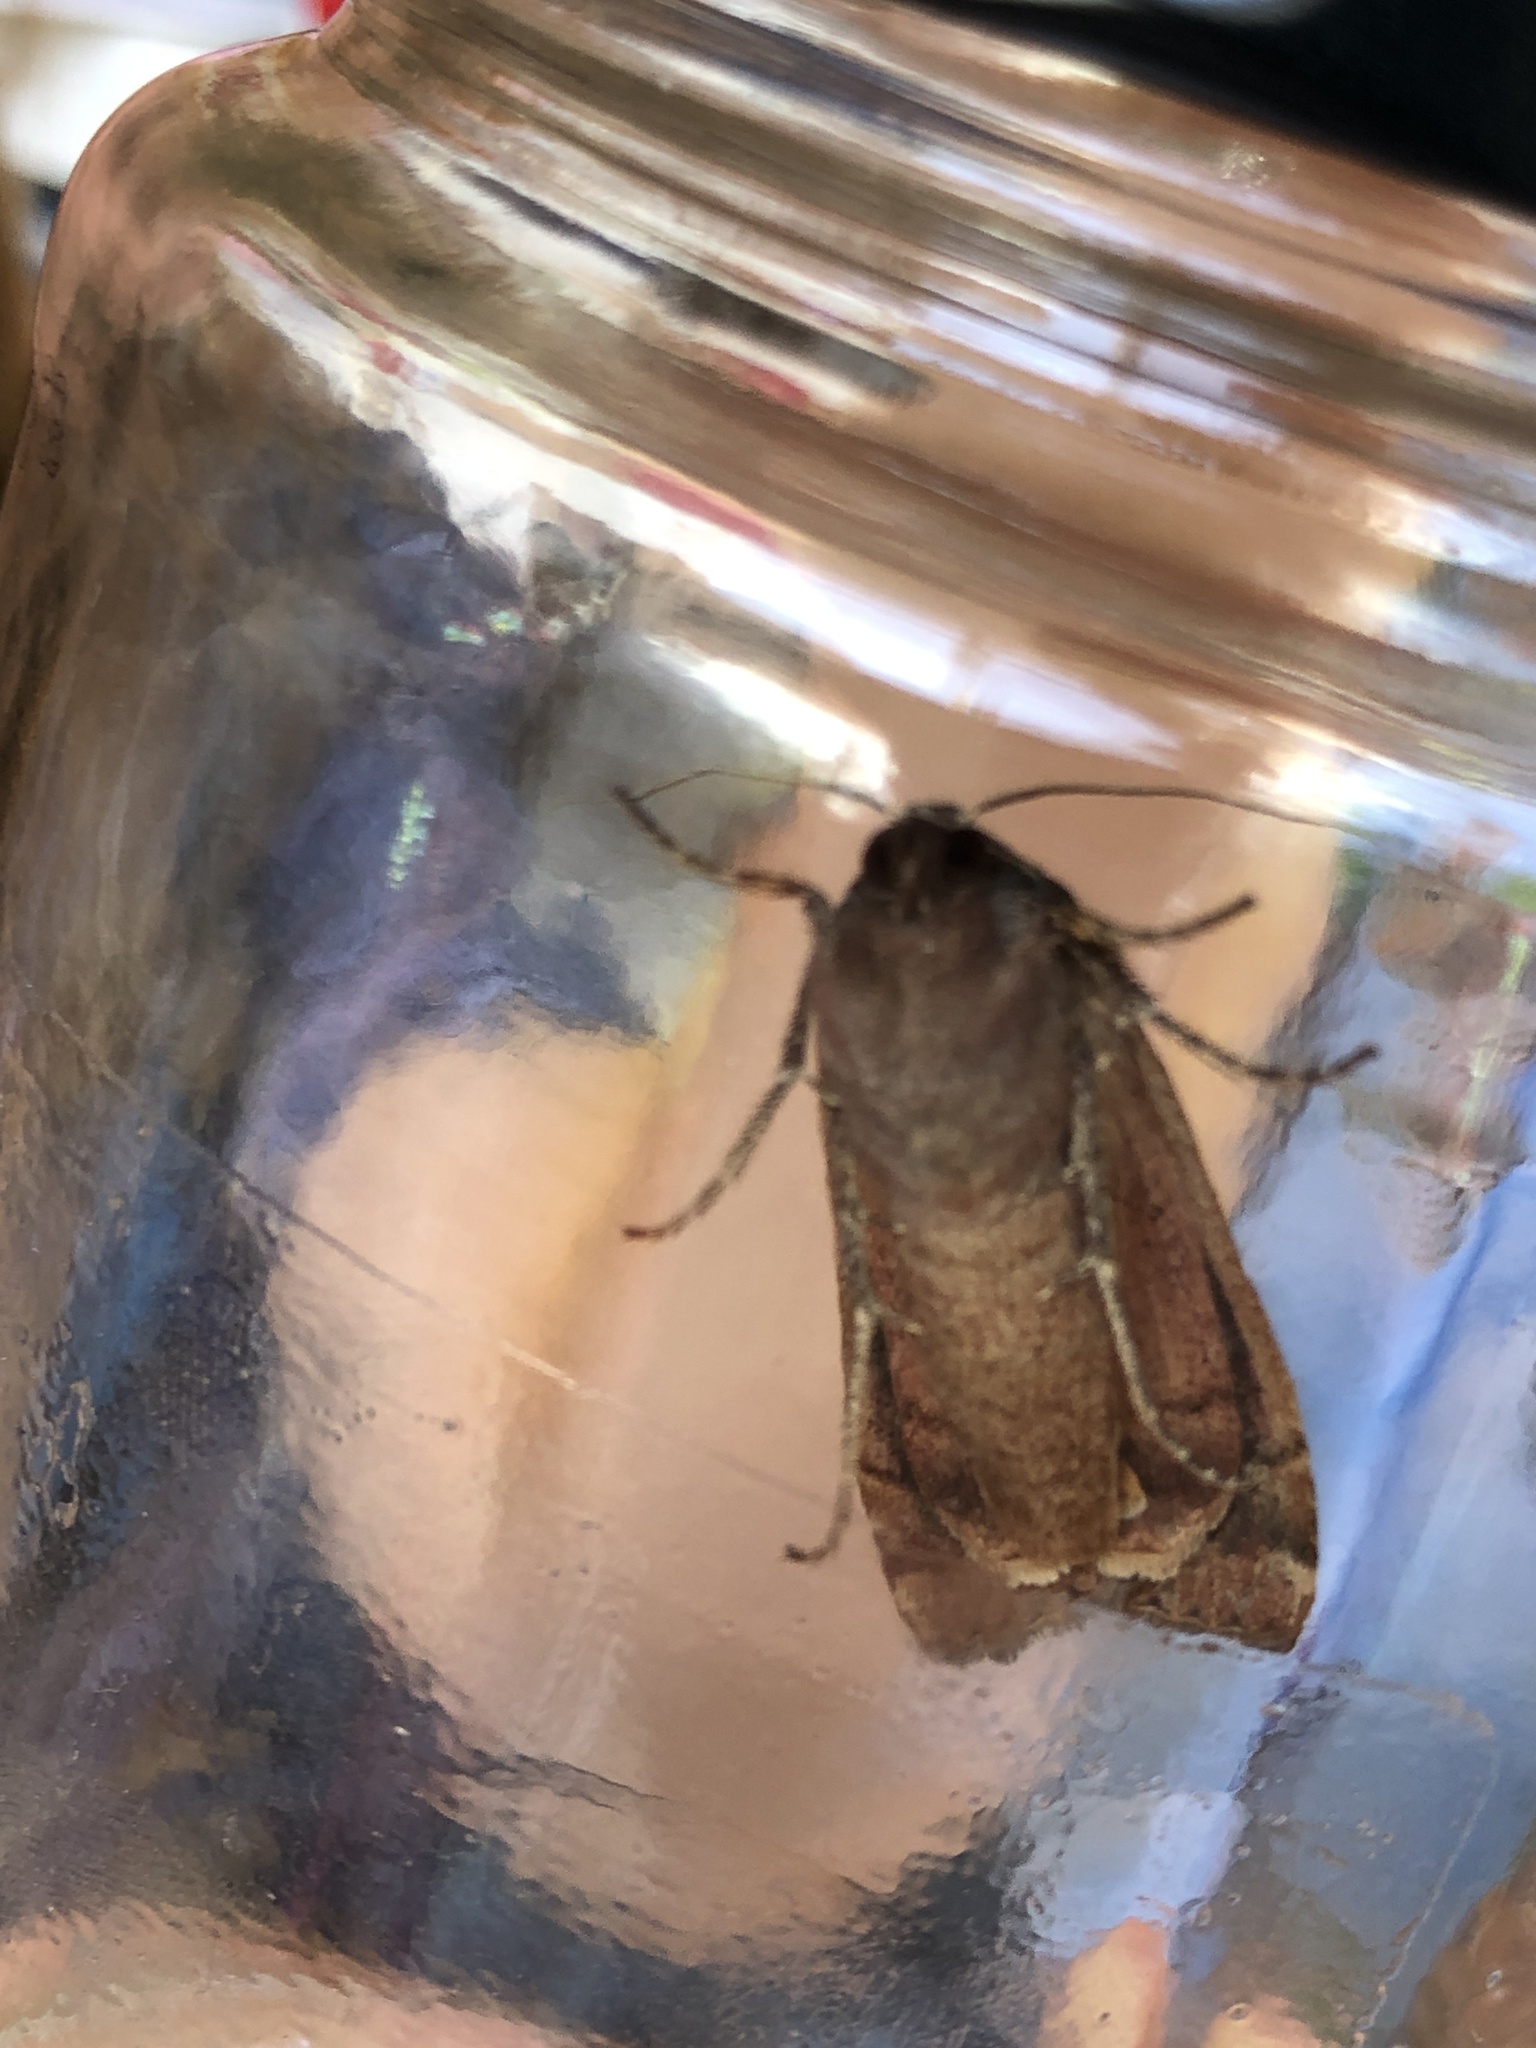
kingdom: Animalia
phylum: Arthropoda
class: Insecta
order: Lepidoptera
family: Noctuidae
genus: Noctua
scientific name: Noctua pronuba
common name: Large yellow underwing
